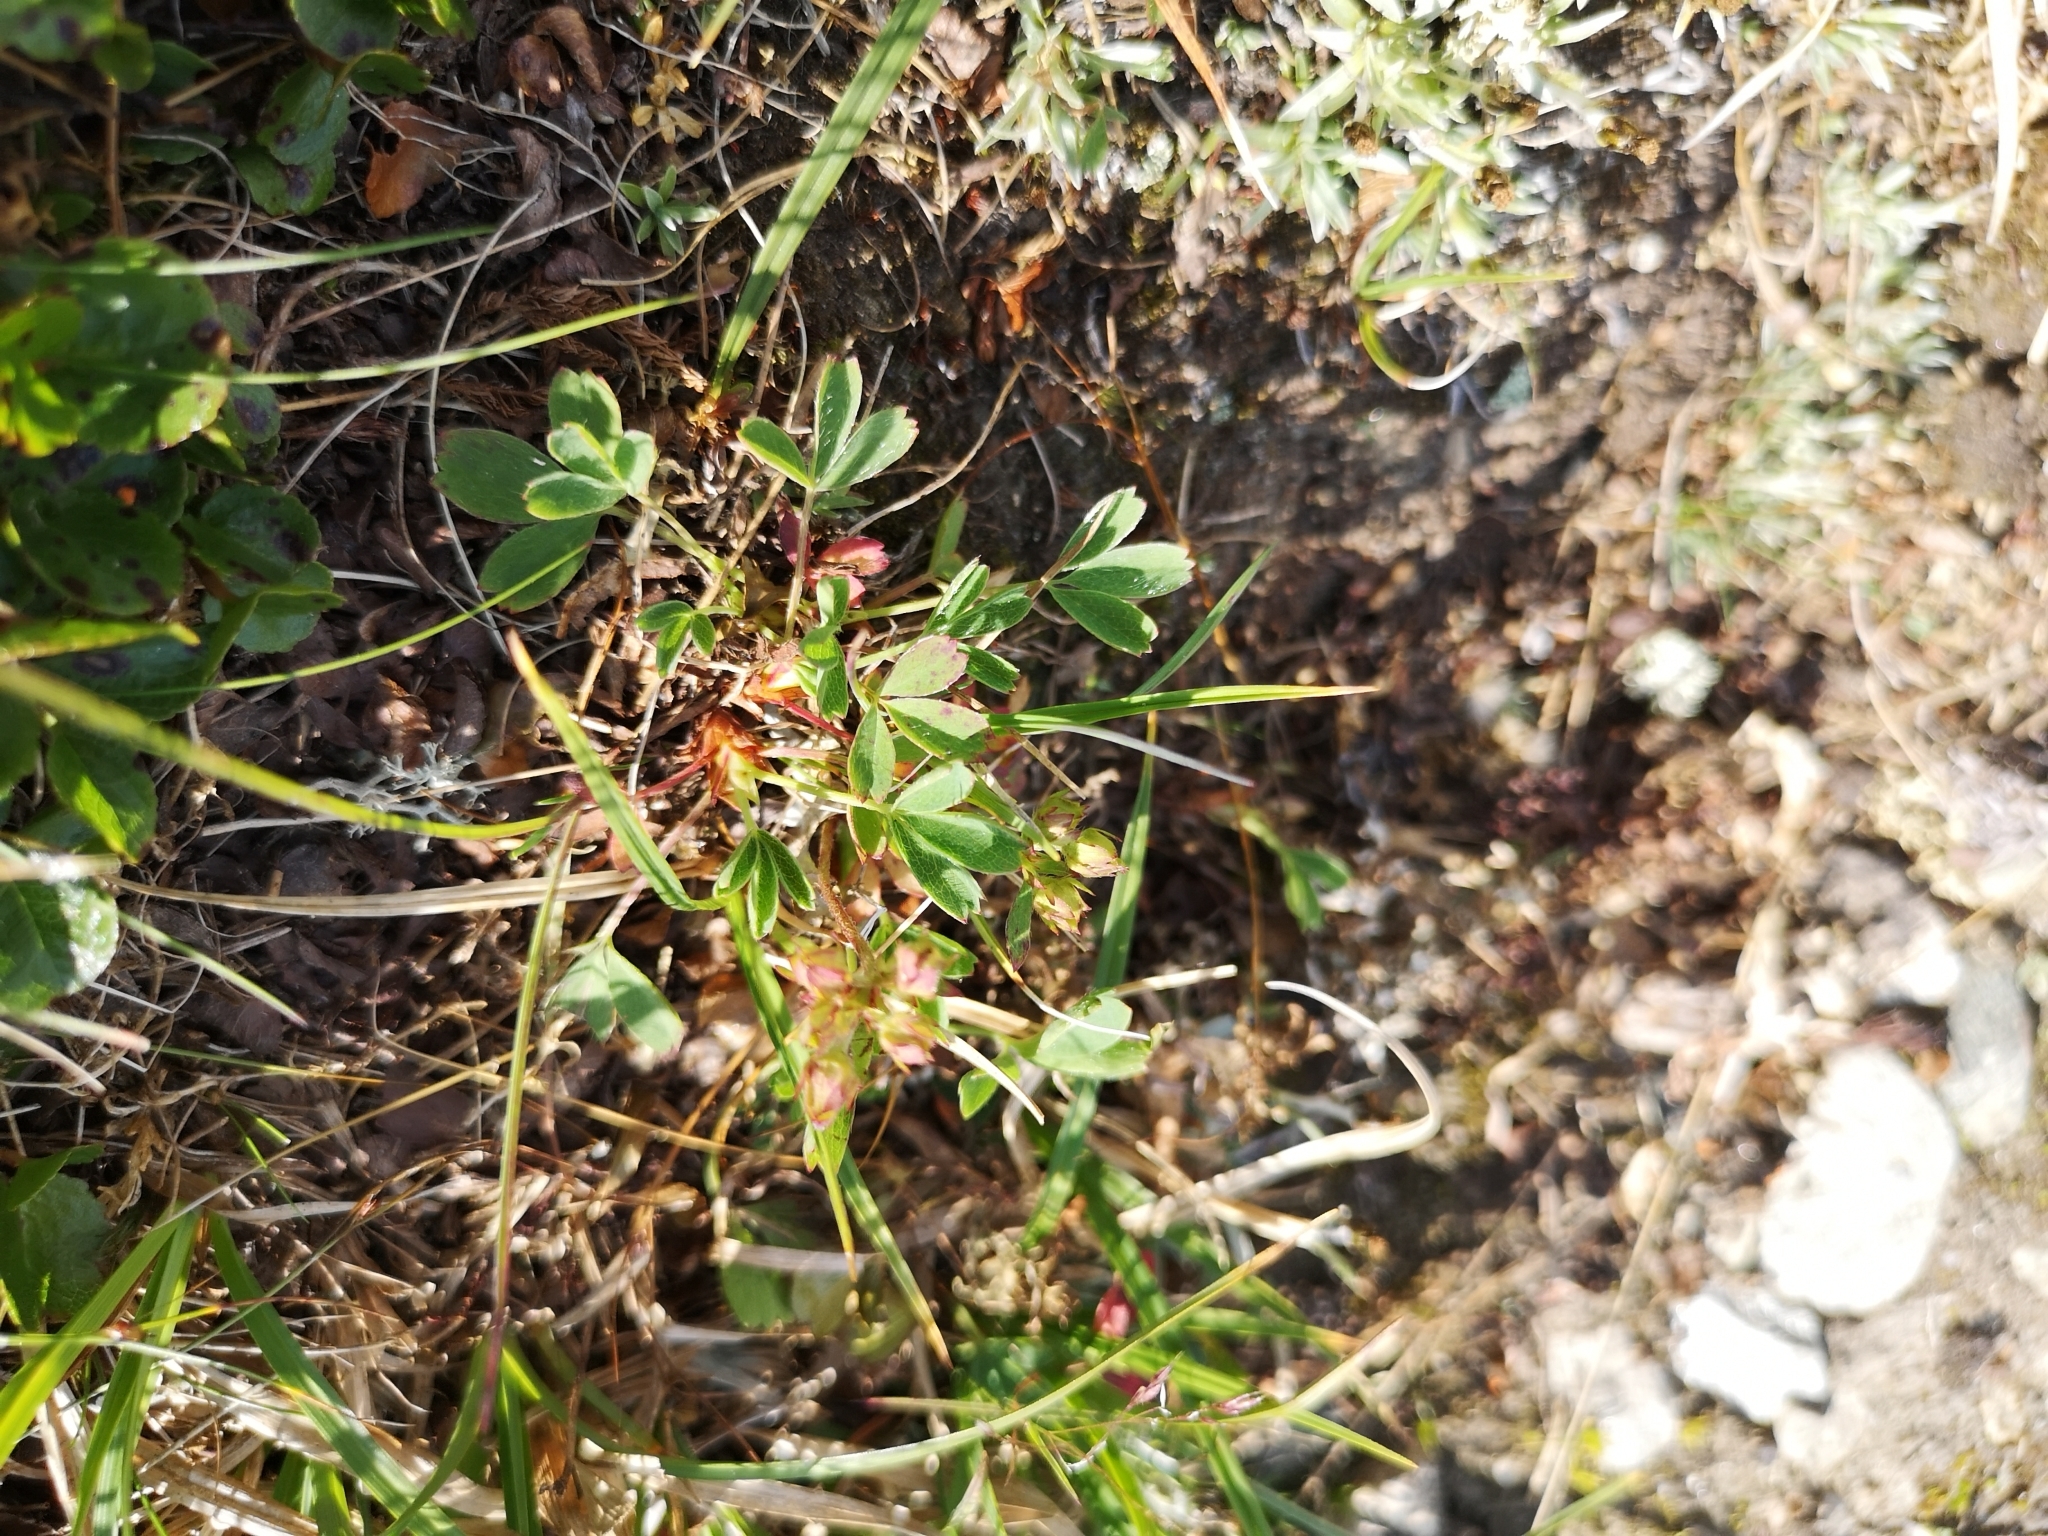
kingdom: Plantae
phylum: Tracheophyta
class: Magnoliopsida
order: Rosales
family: Rosaceae
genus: Sibbaldia
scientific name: Sibbaldia procumbens
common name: Creeping sibbaldia
